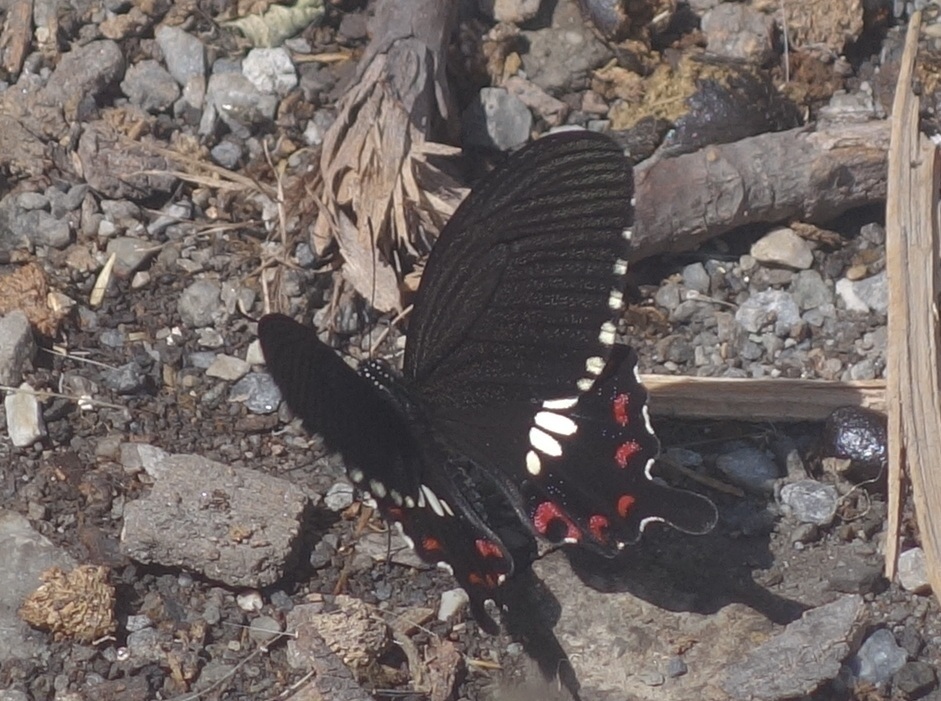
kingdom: Animalia
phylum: Arthropoda
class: Insecta
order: Lepidoptera
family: Papilionidae
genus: Papilio
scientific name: Papilio polytes
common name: Common mormon
